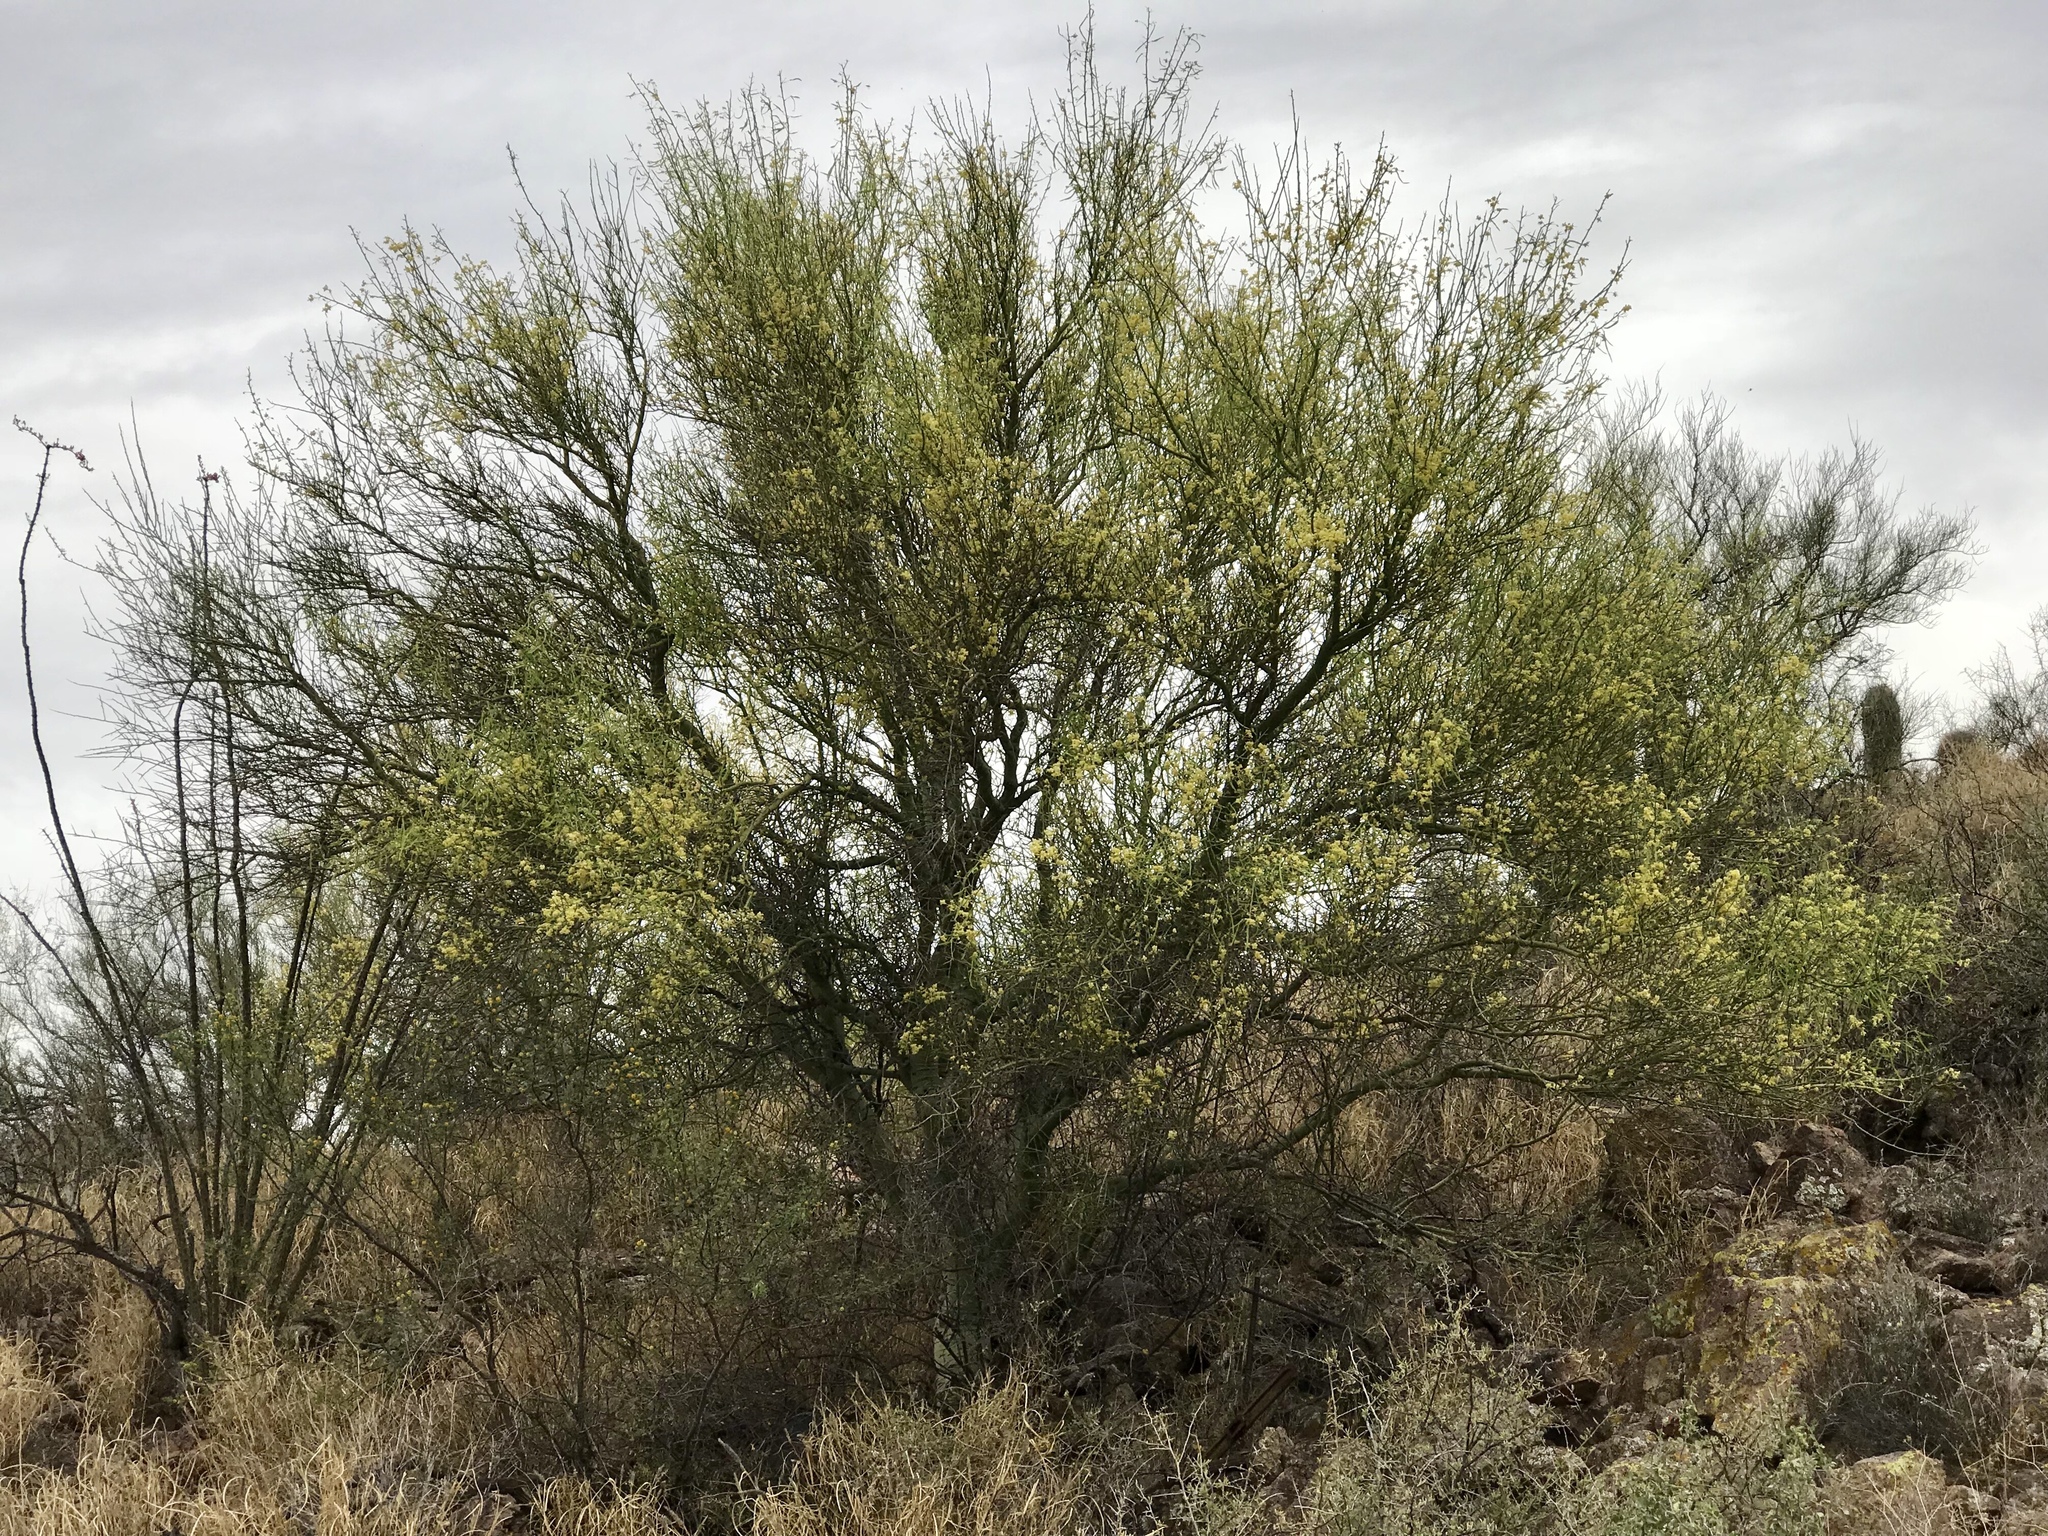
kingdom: Plantae
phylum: Tracheophyta
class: Magnoliopsida
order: Fabales
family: Fabaceae
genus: Parkinsonia
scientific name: Parkinsonia microphylla
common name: Yellow paloverde
